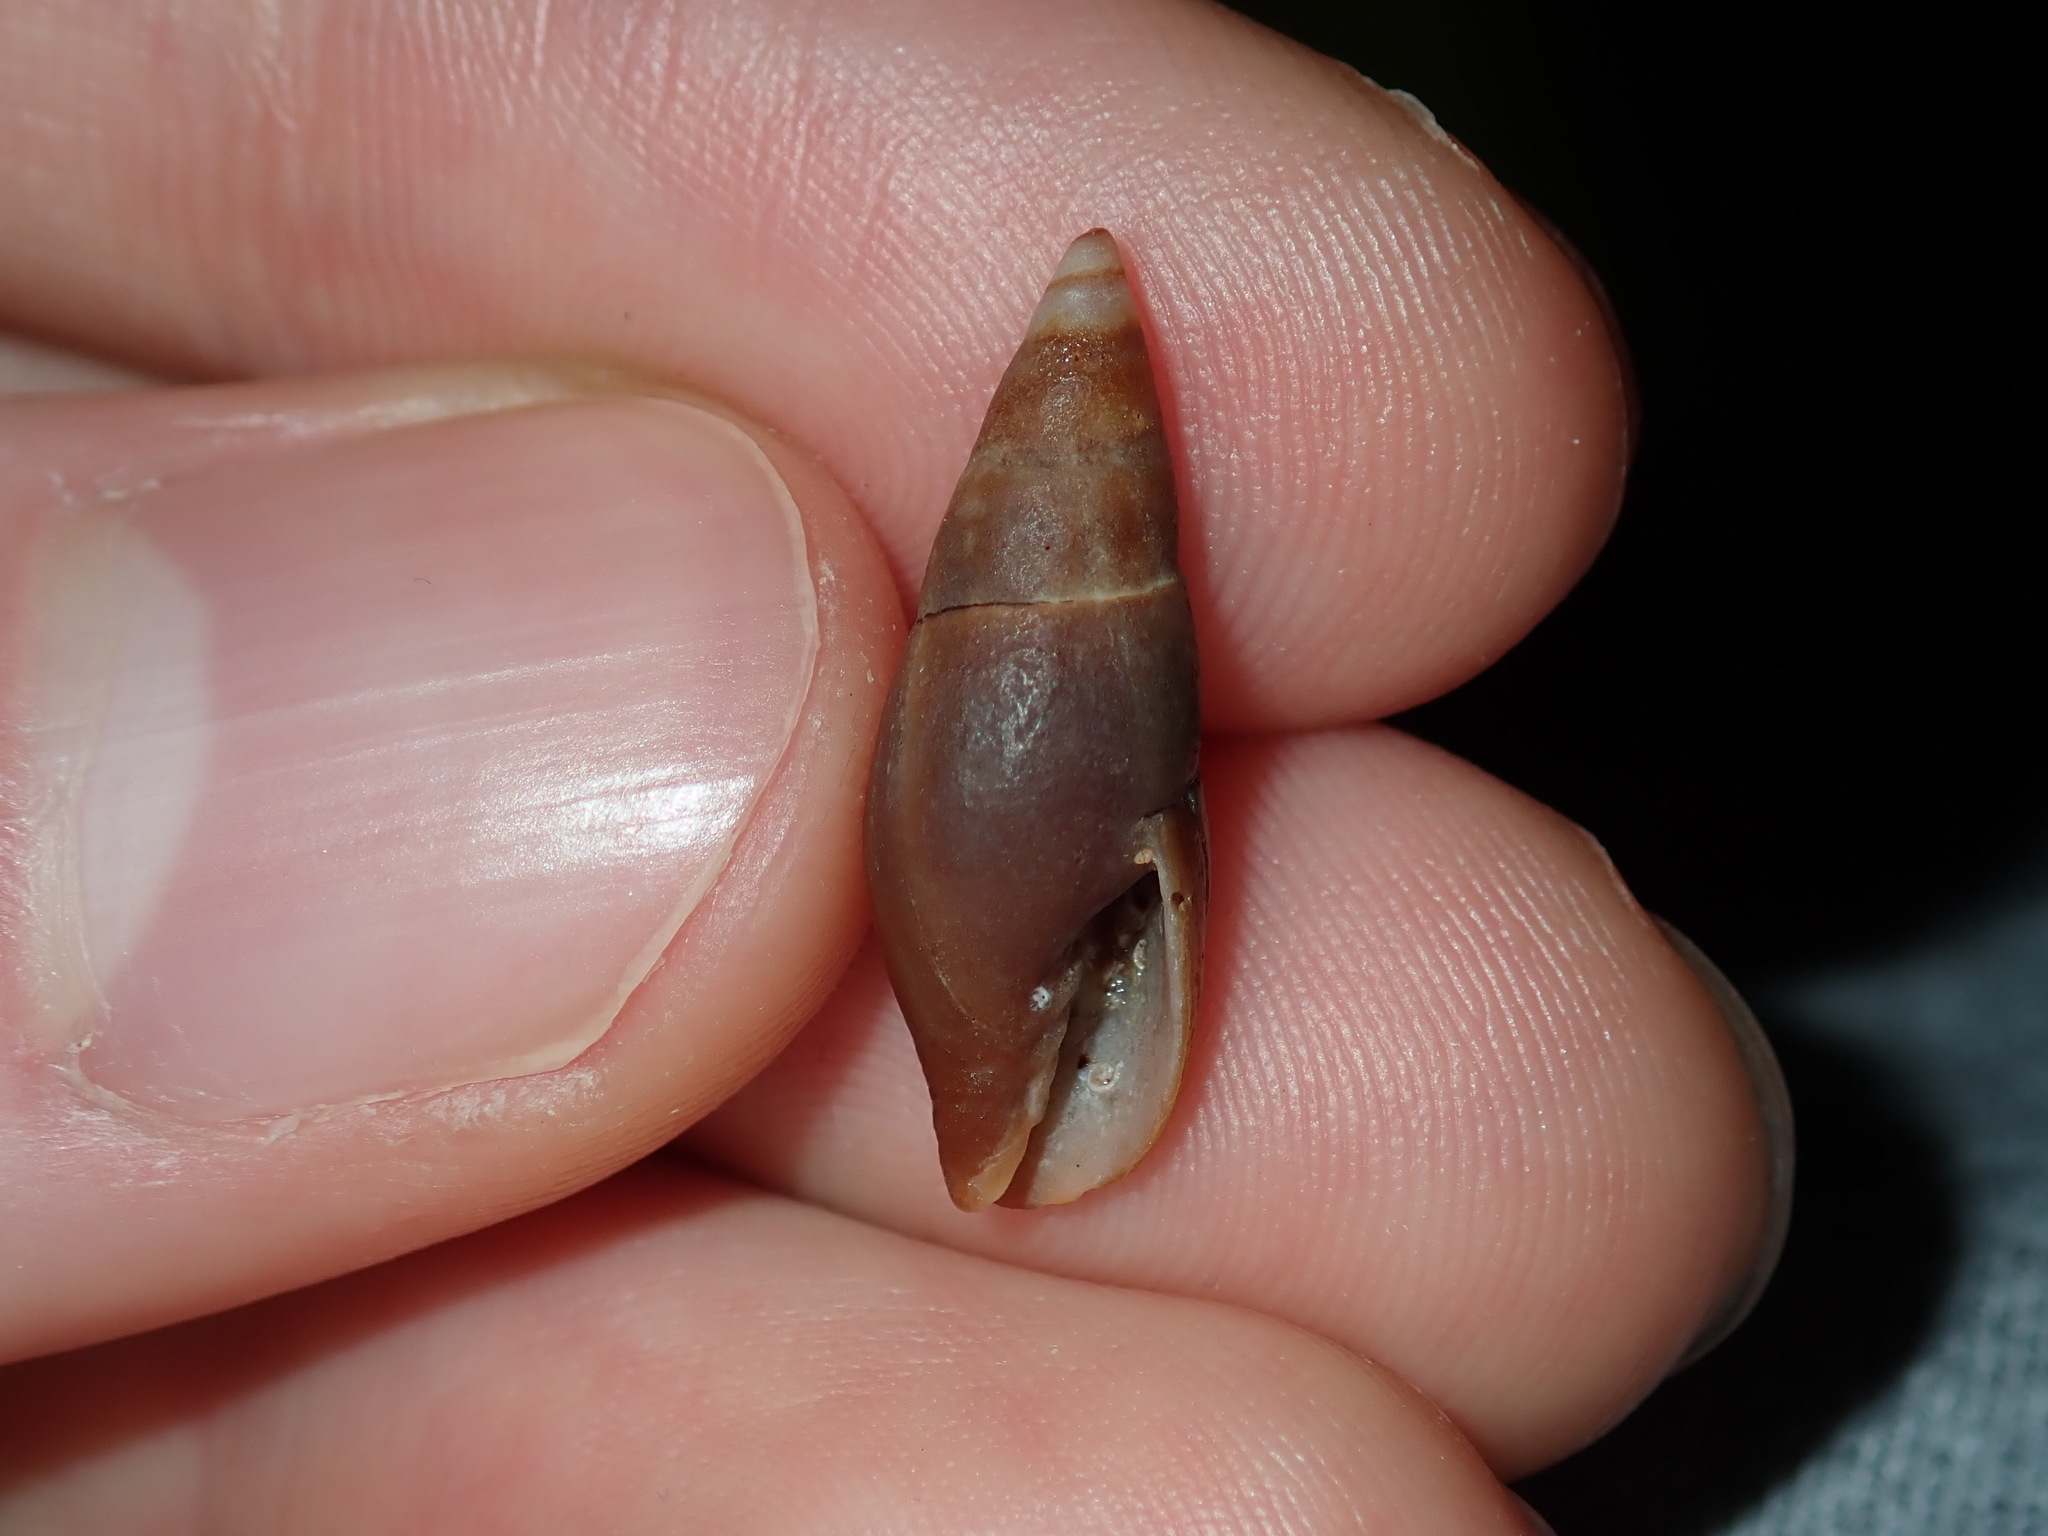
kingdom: Animalia
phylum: Mollusca
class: Gastropoda
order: Neogastropoda
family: Mitridae
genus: Isara
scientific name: Isara badia
